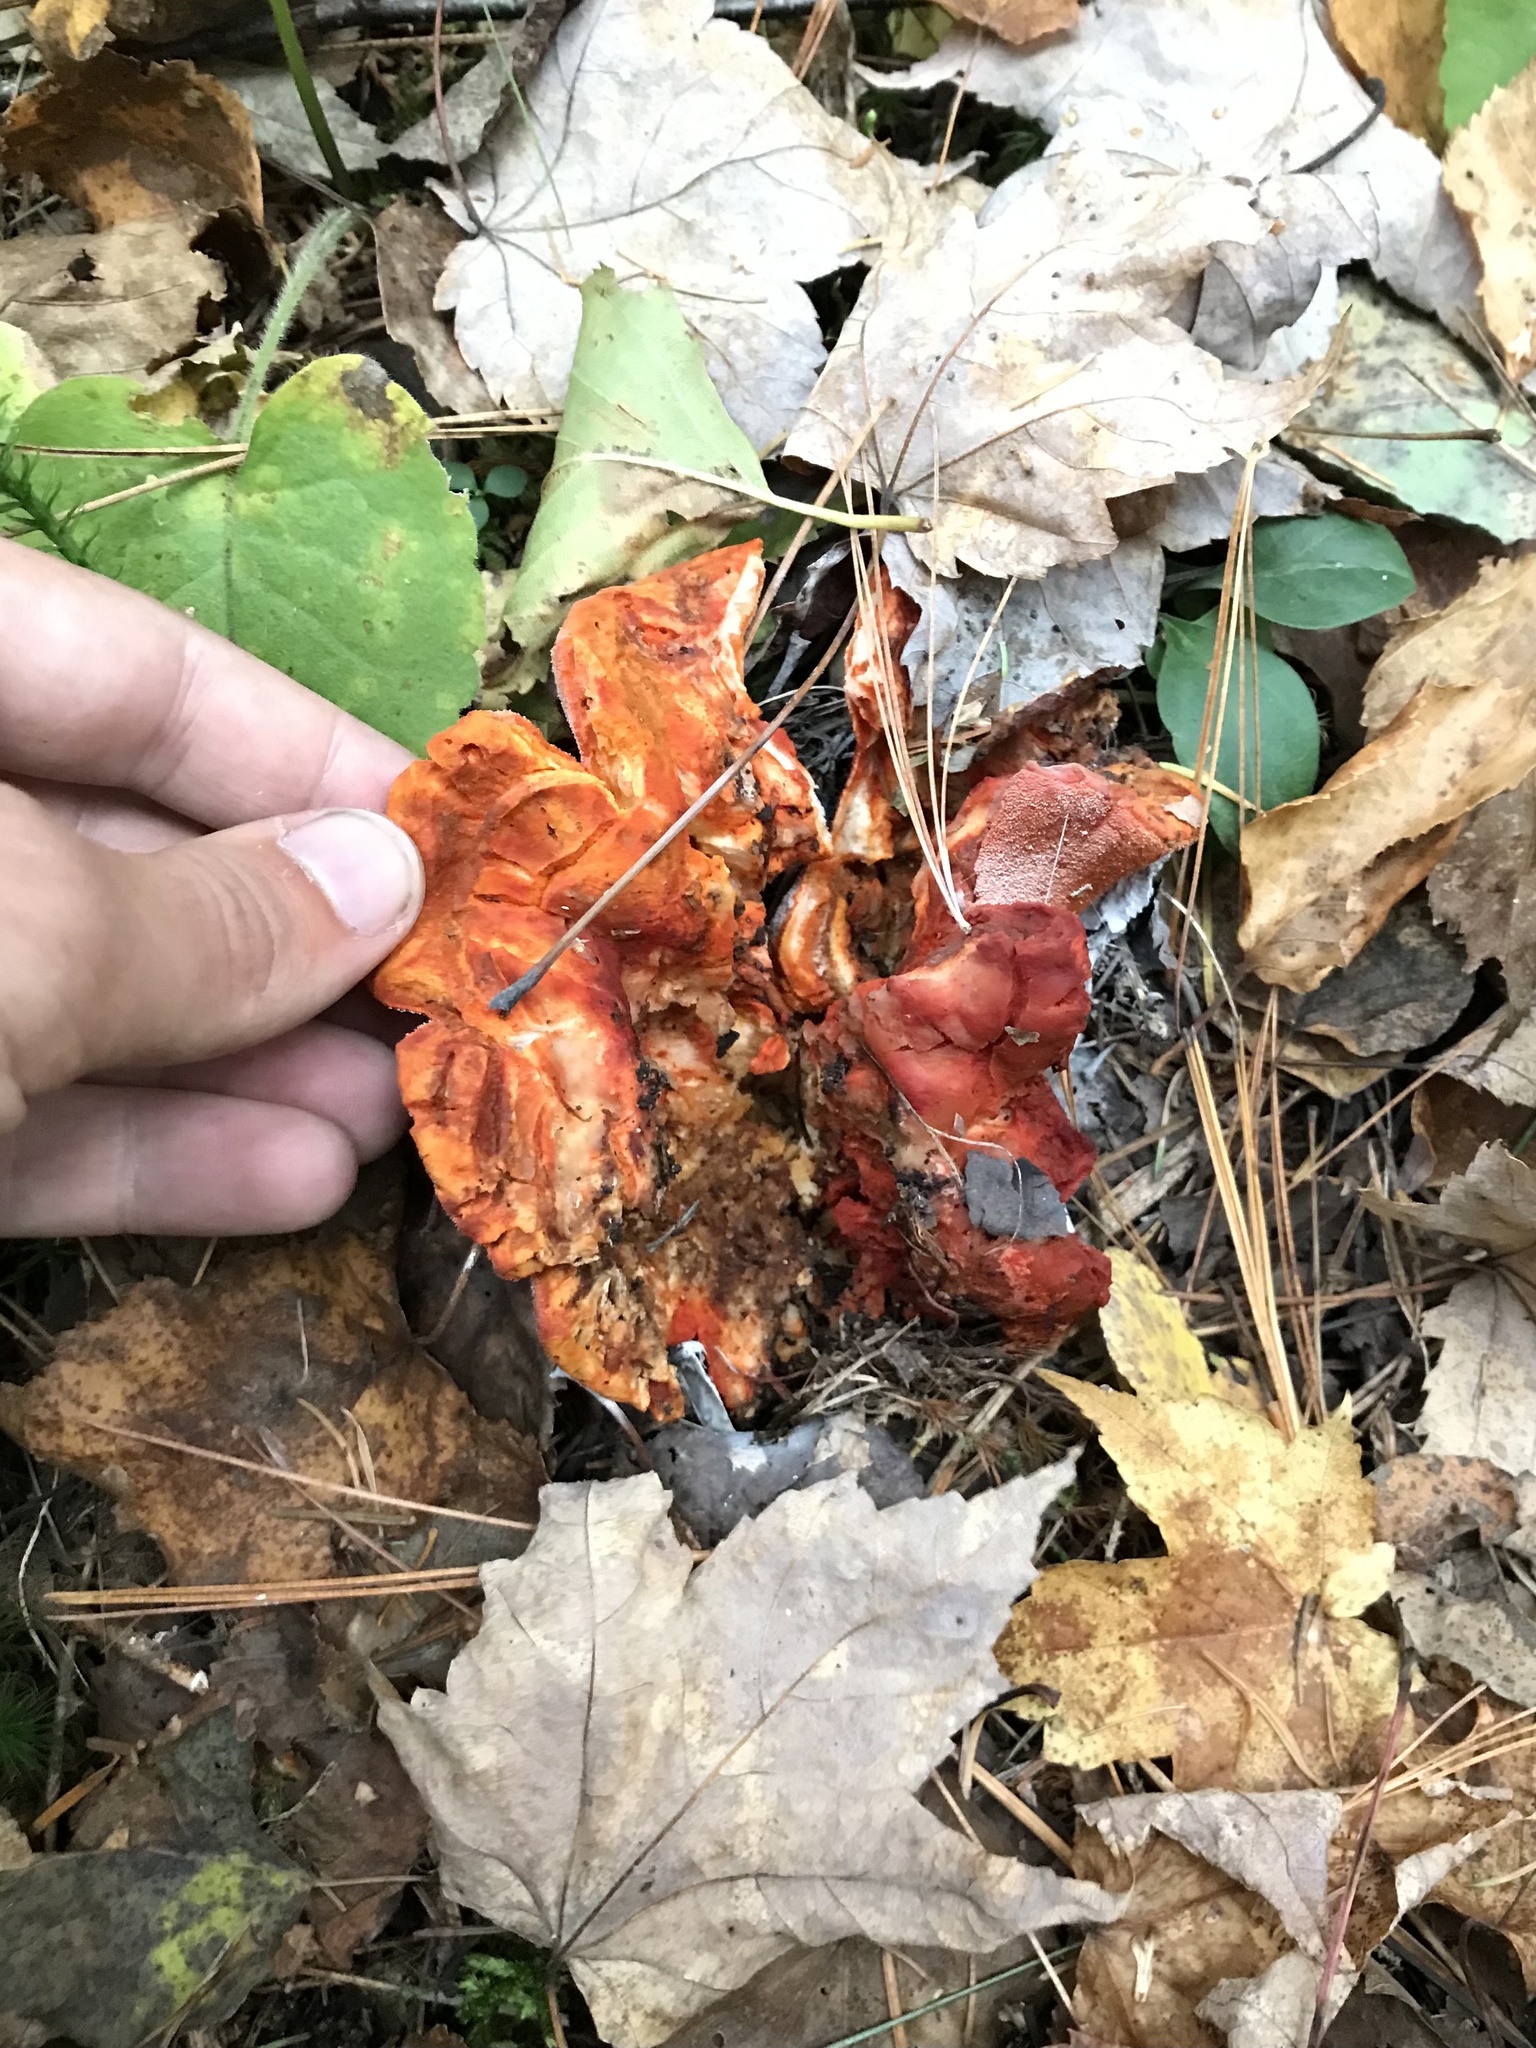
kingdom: Fungi
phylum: Ascomycota
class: Sordariomycetes
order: Hypocreales
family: Hypocreaceae
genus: Hypomyces
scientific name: Hypomyces lactifluorum
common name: Lobster mushroom
